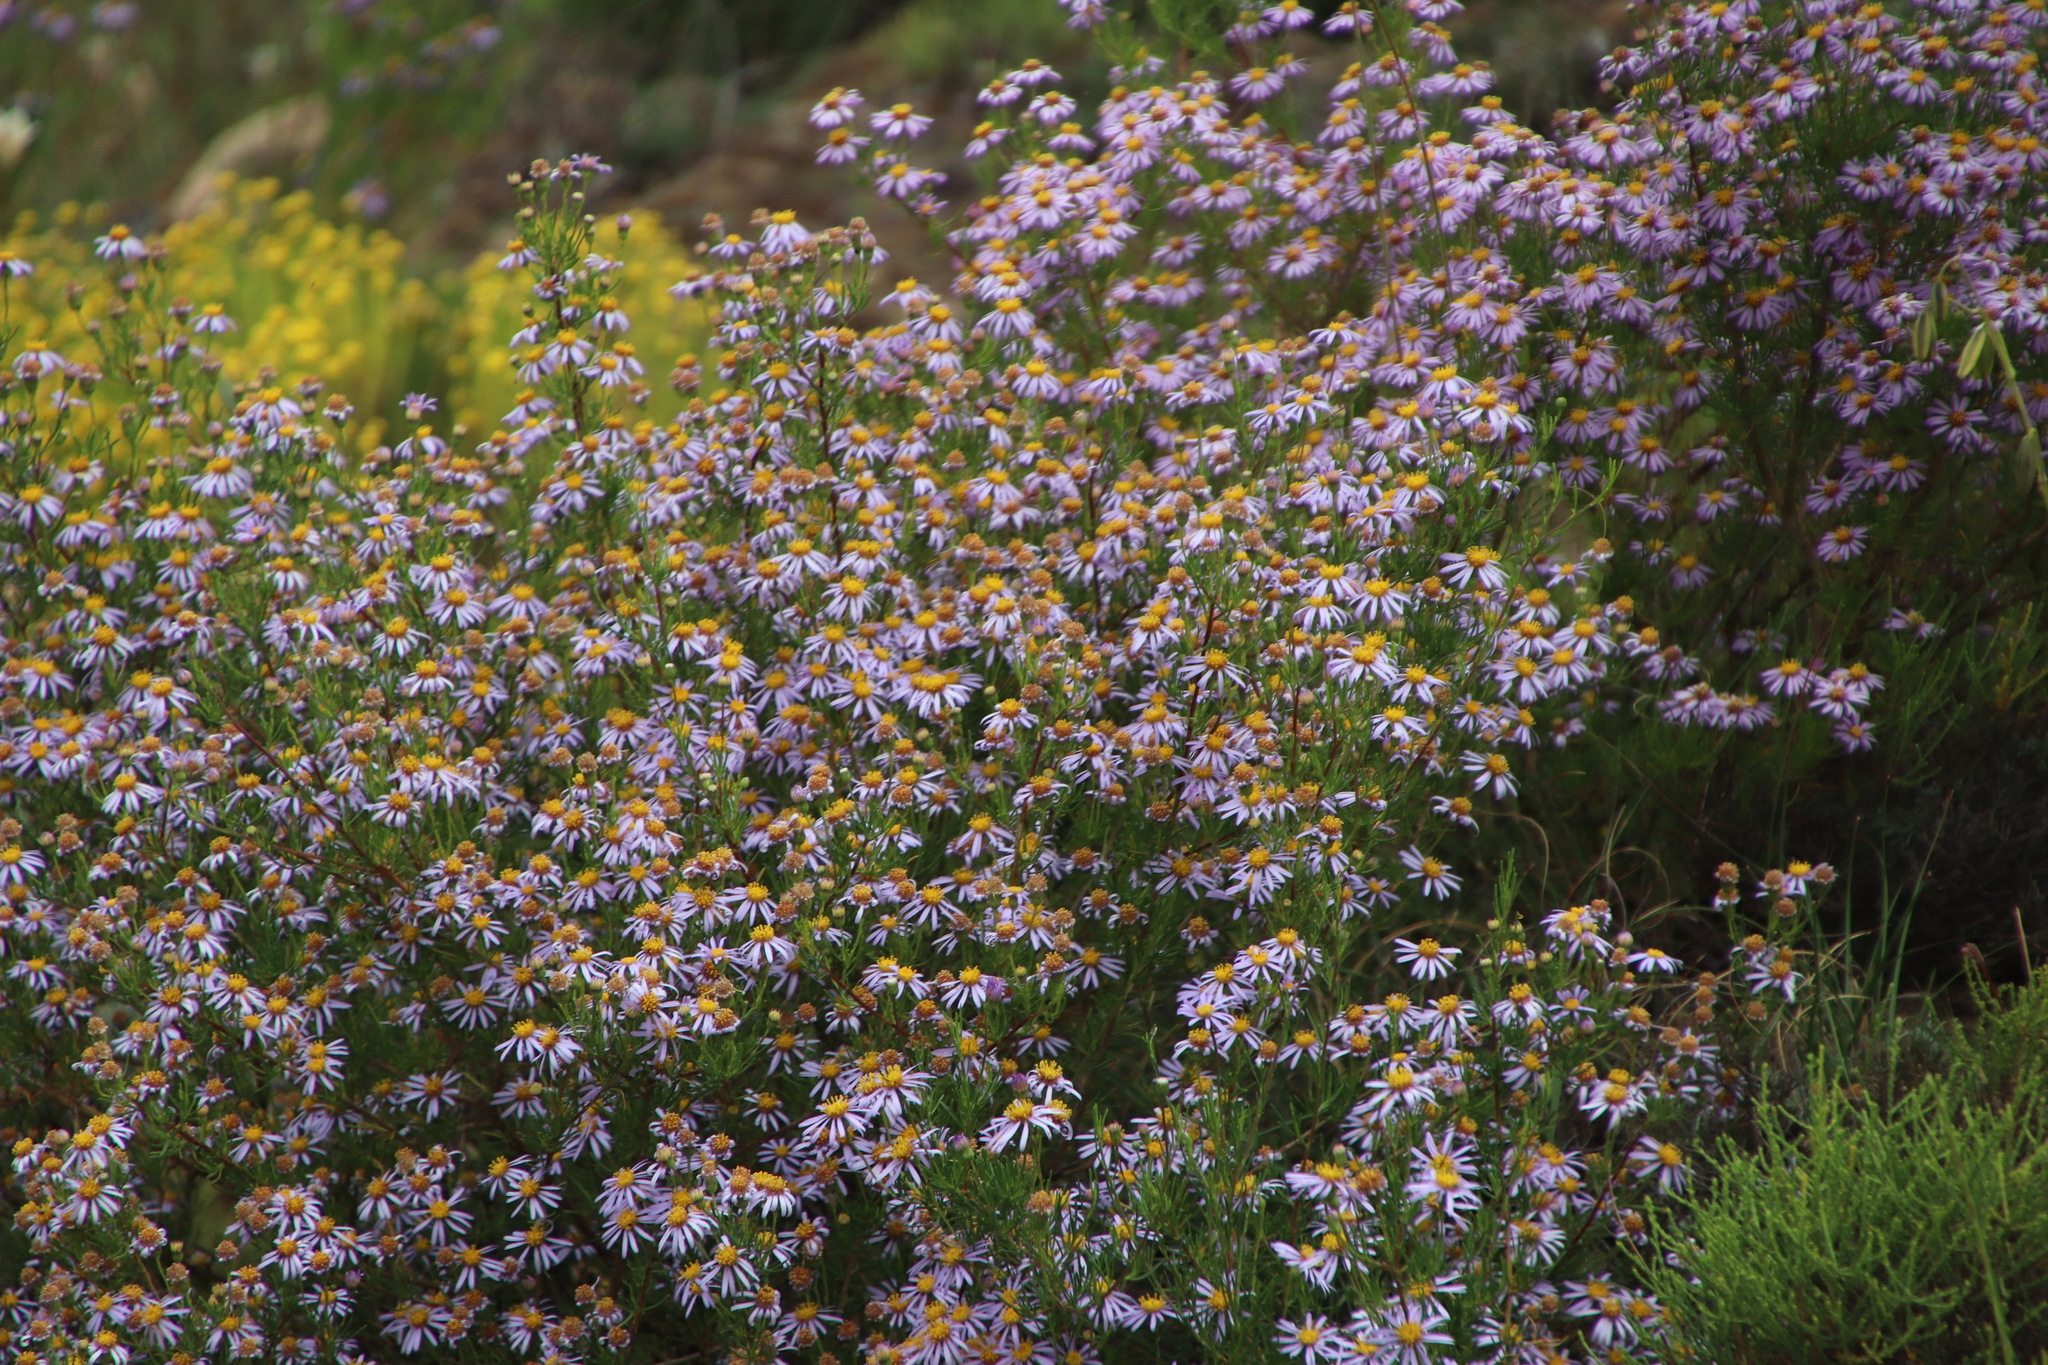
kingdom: Plantae
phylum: Tracheophyta
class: Magnoliopsida
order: Asterales
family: Asteraceae
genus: Felicia
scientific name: Felicia filifolia
